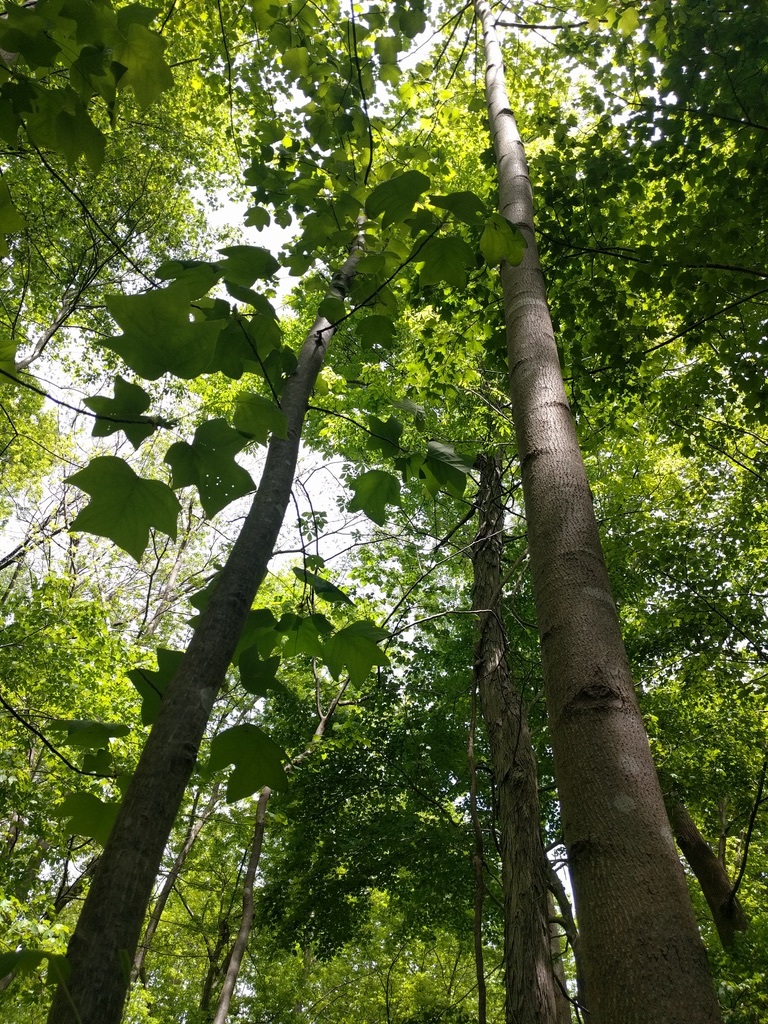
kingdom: Plantae
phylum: Tracheophyta
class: Magnoliopsida
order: Magnoliales
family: Magnoliaceae
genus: Liriodendron
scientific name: Liriodendron tulipifera
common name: Tulip tree
